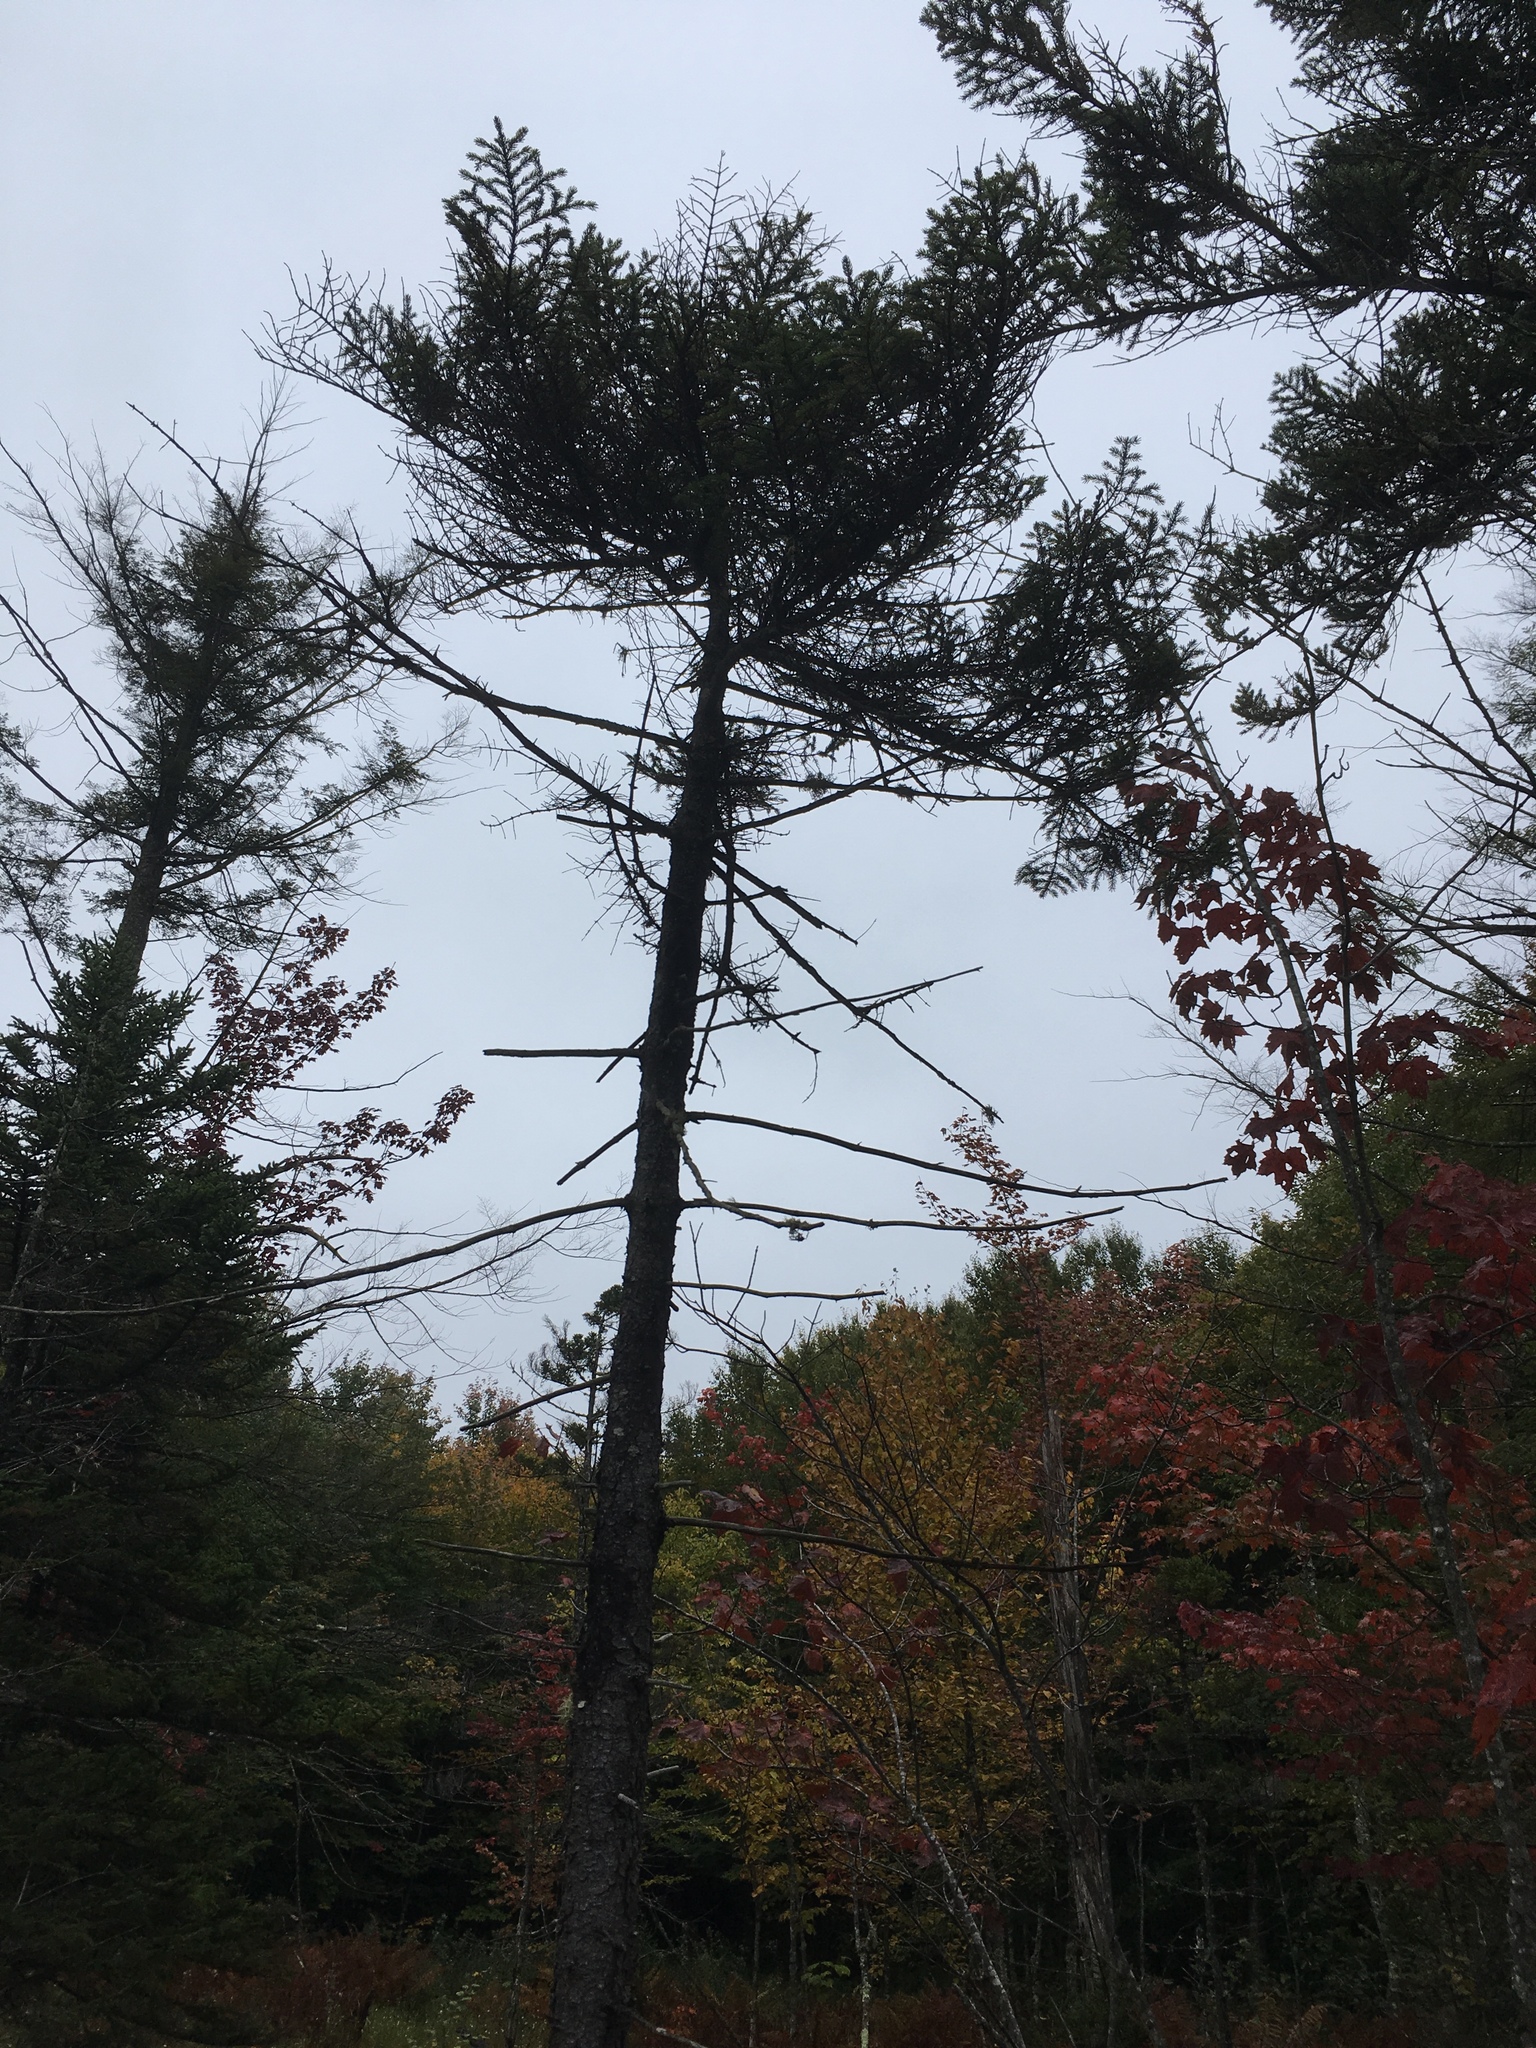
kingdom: Plantae
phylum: Tracheophyta
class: Pinopsida
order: Pinales
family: Pinaceae
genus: Picea
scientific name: Picea mariana
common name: Black spruce
